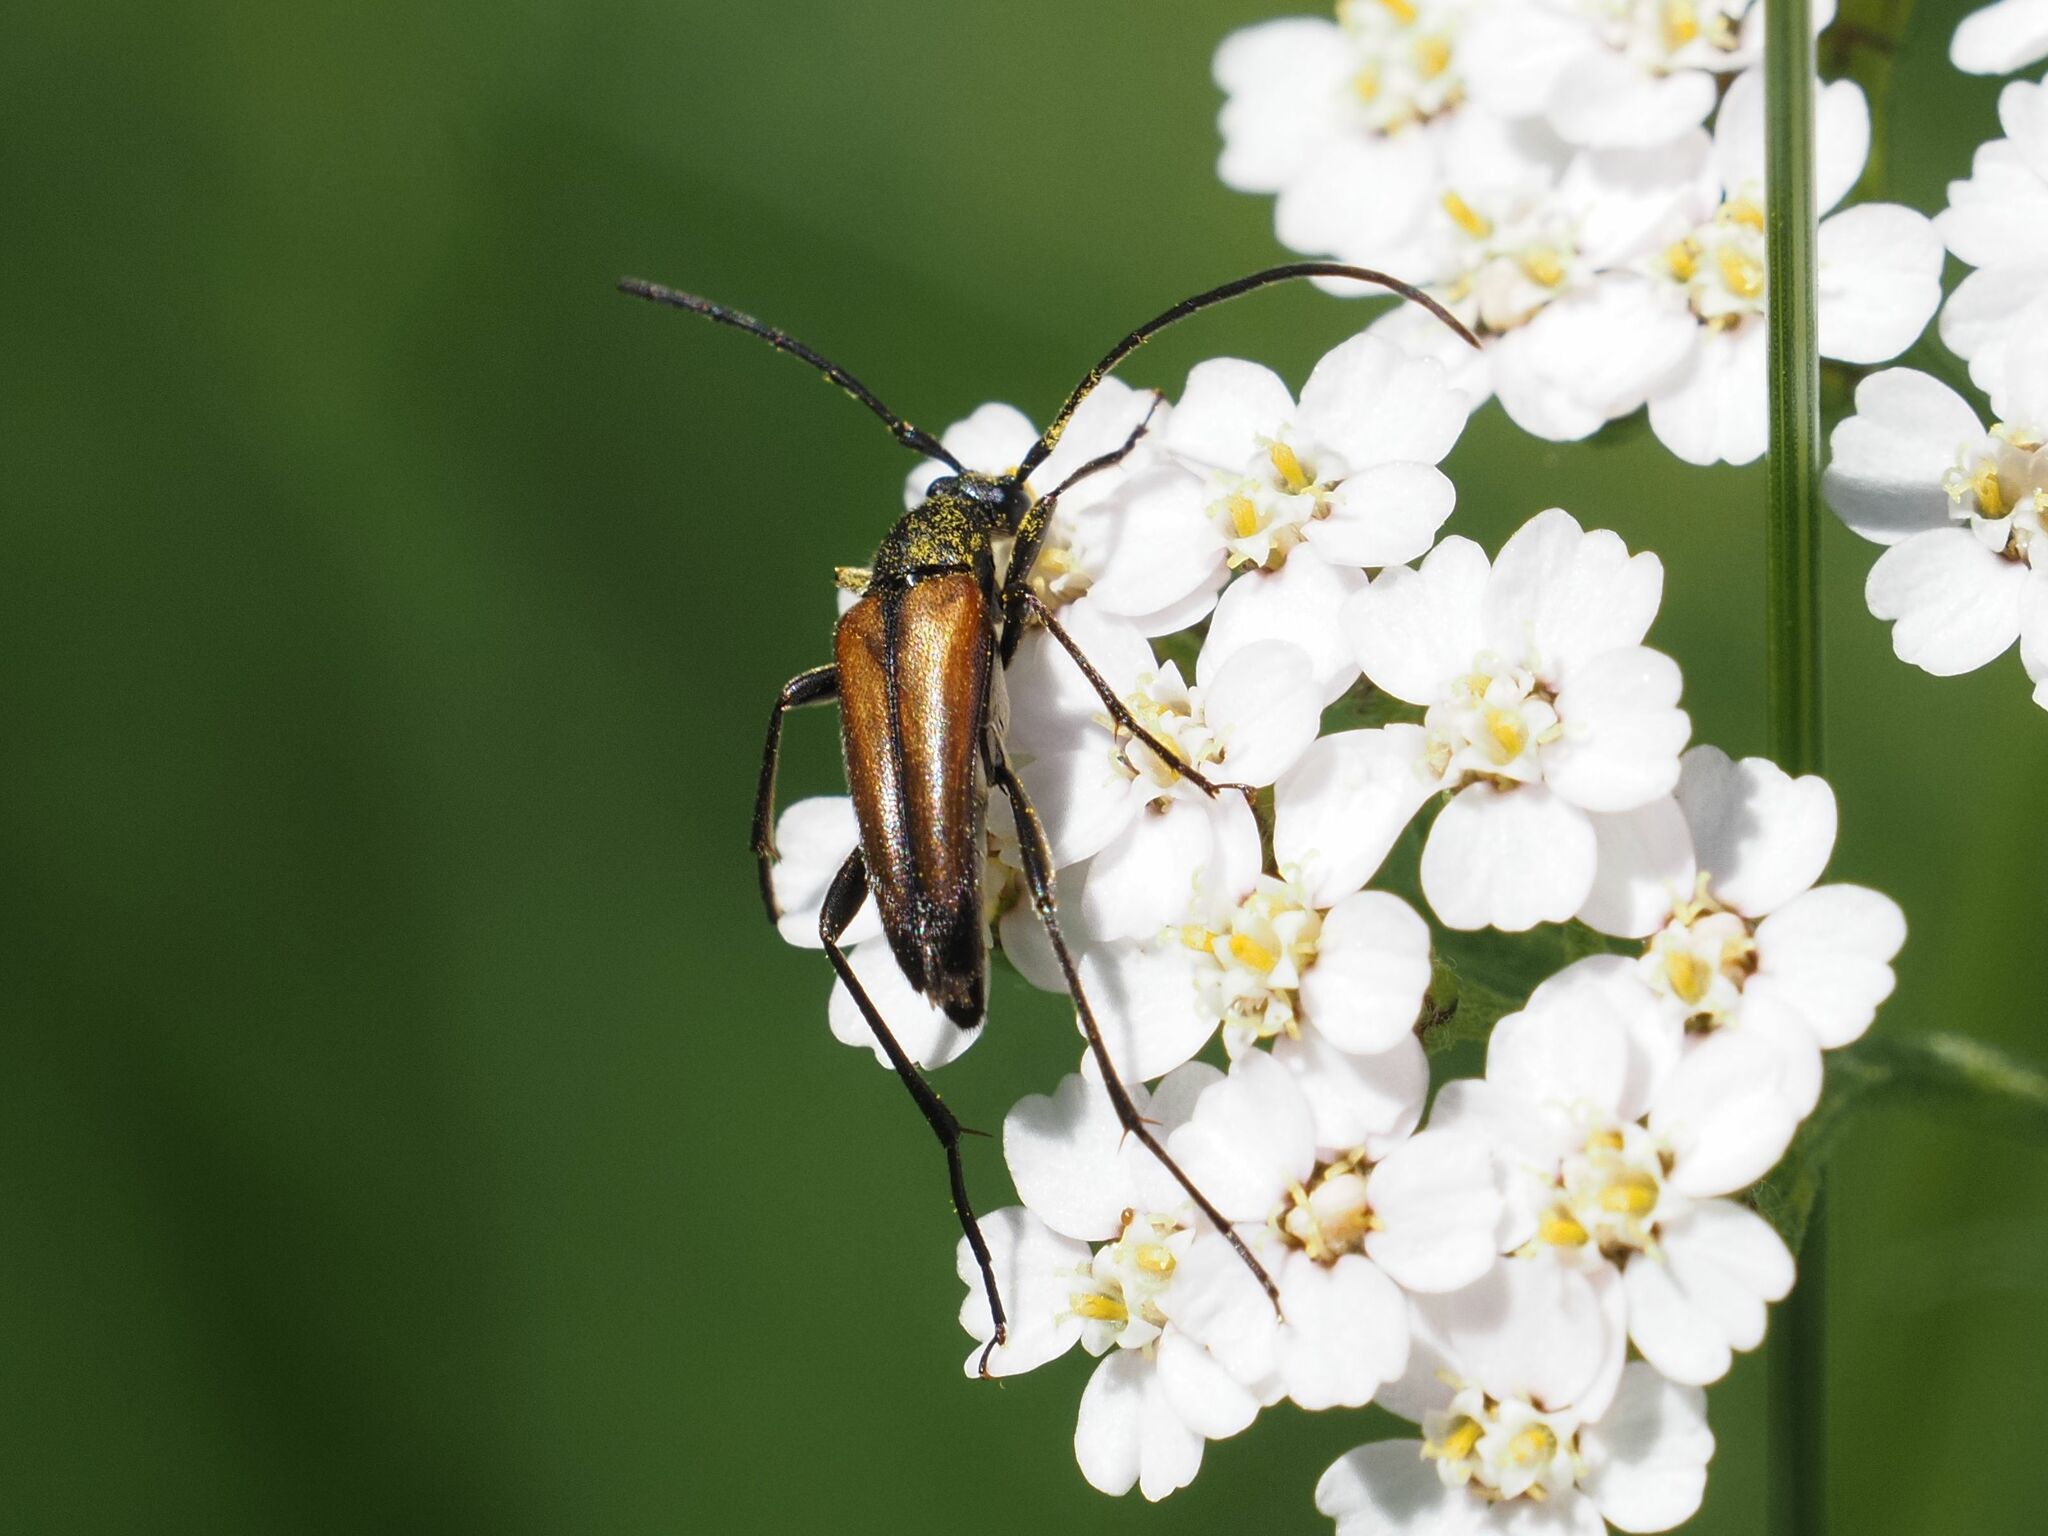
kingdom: Animalia
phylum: Arthropoda
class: Insecta
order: Coleoptera
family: Cerambycidae
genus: Stenurella
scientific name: Stenurella melanura
